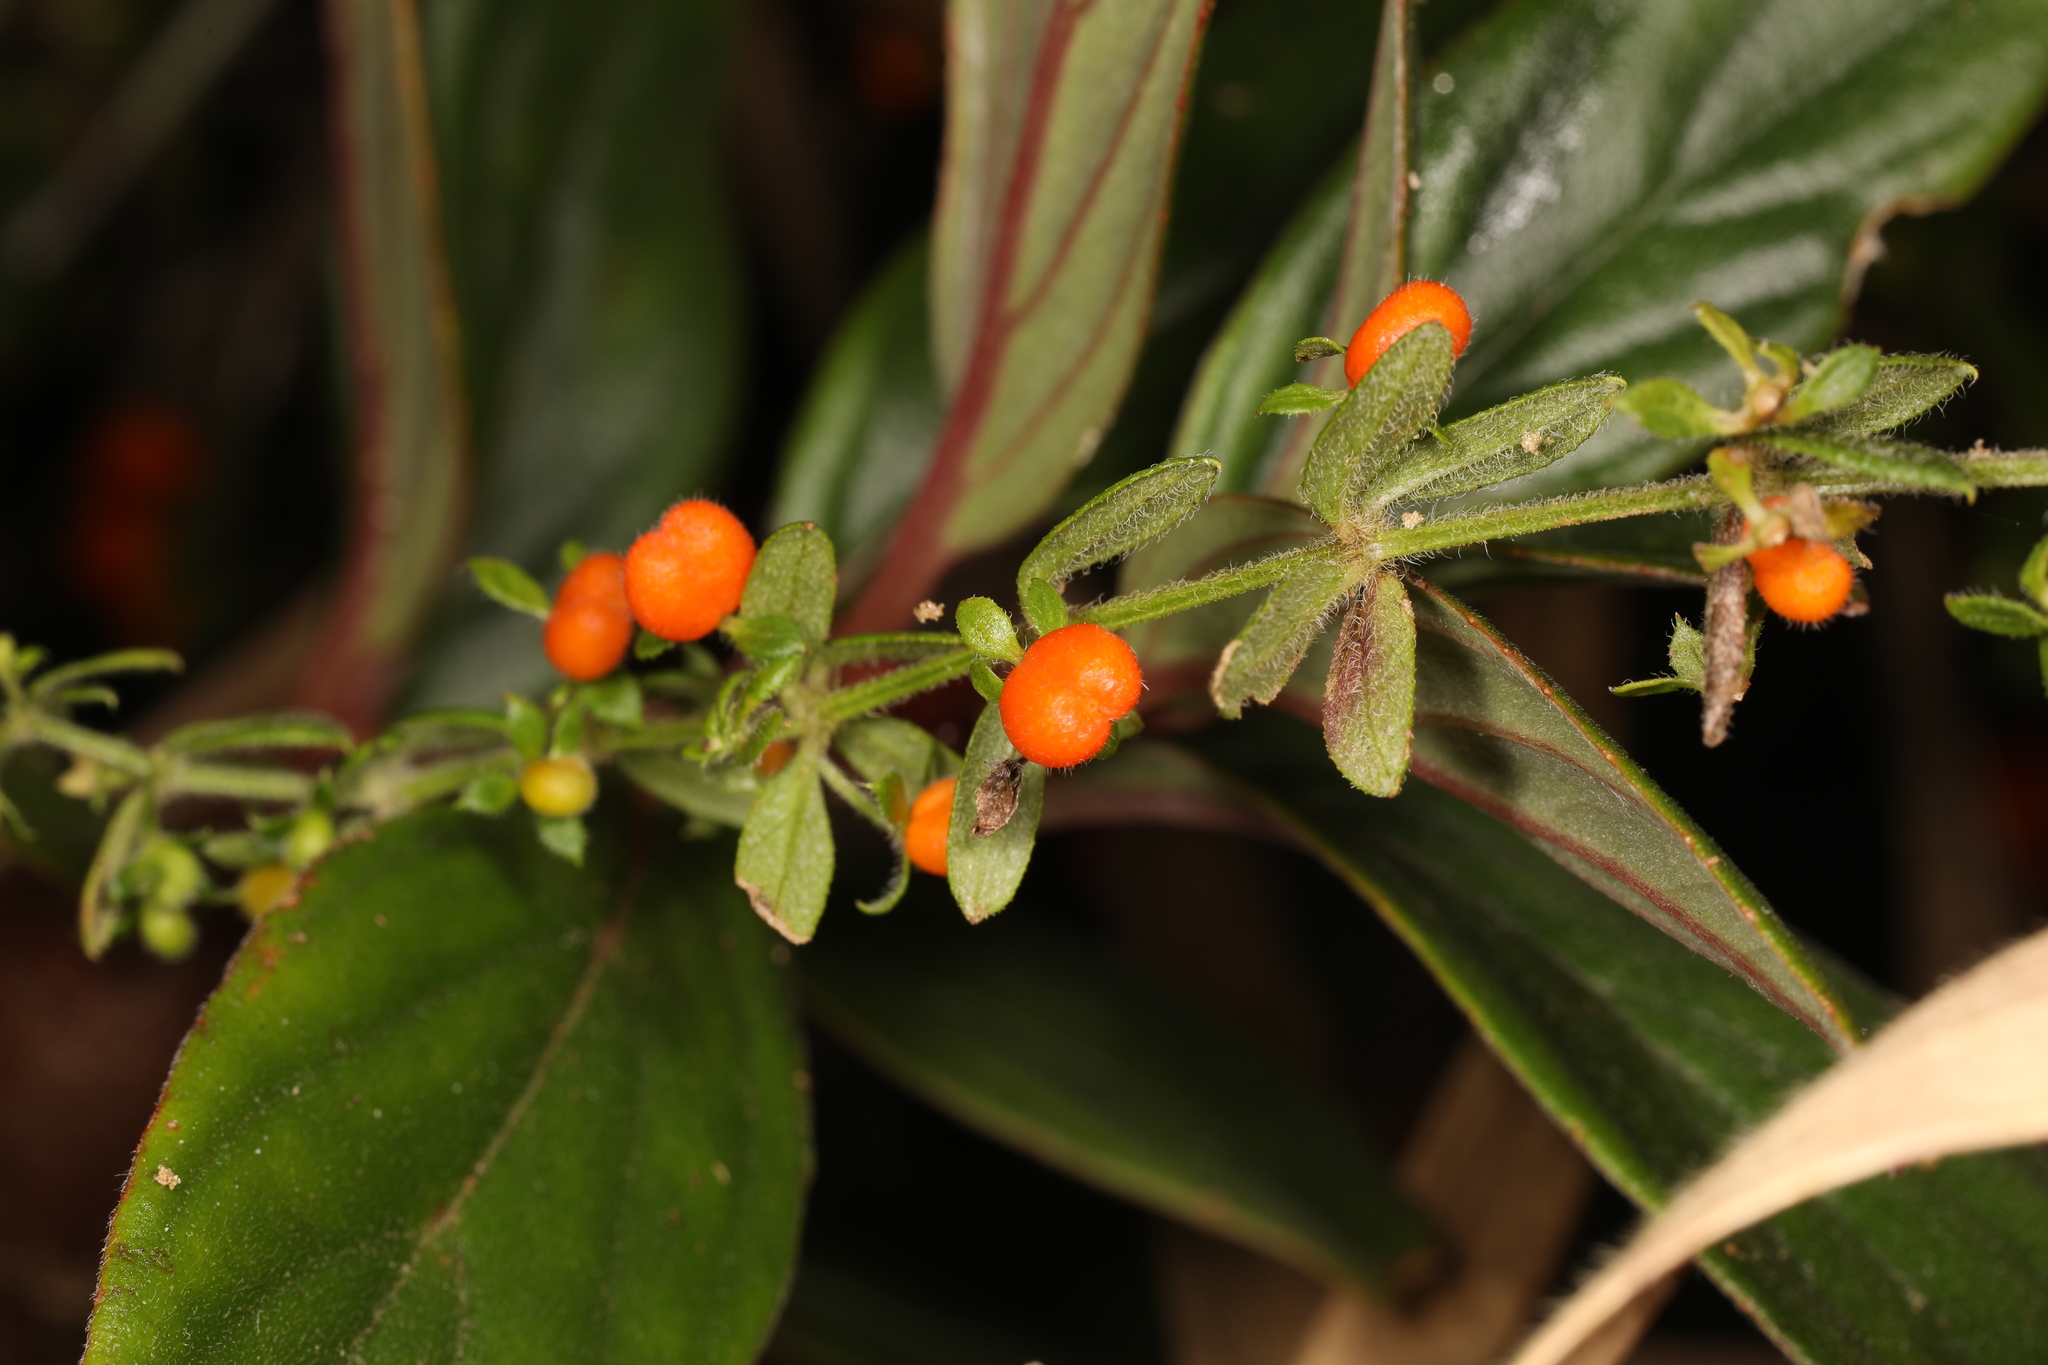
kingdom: Plantae
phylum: Tracheophyta
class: Magnoliopsida
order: Gentianales
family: Rubiaceae
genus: Galium
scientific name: Galium hypocarpium
